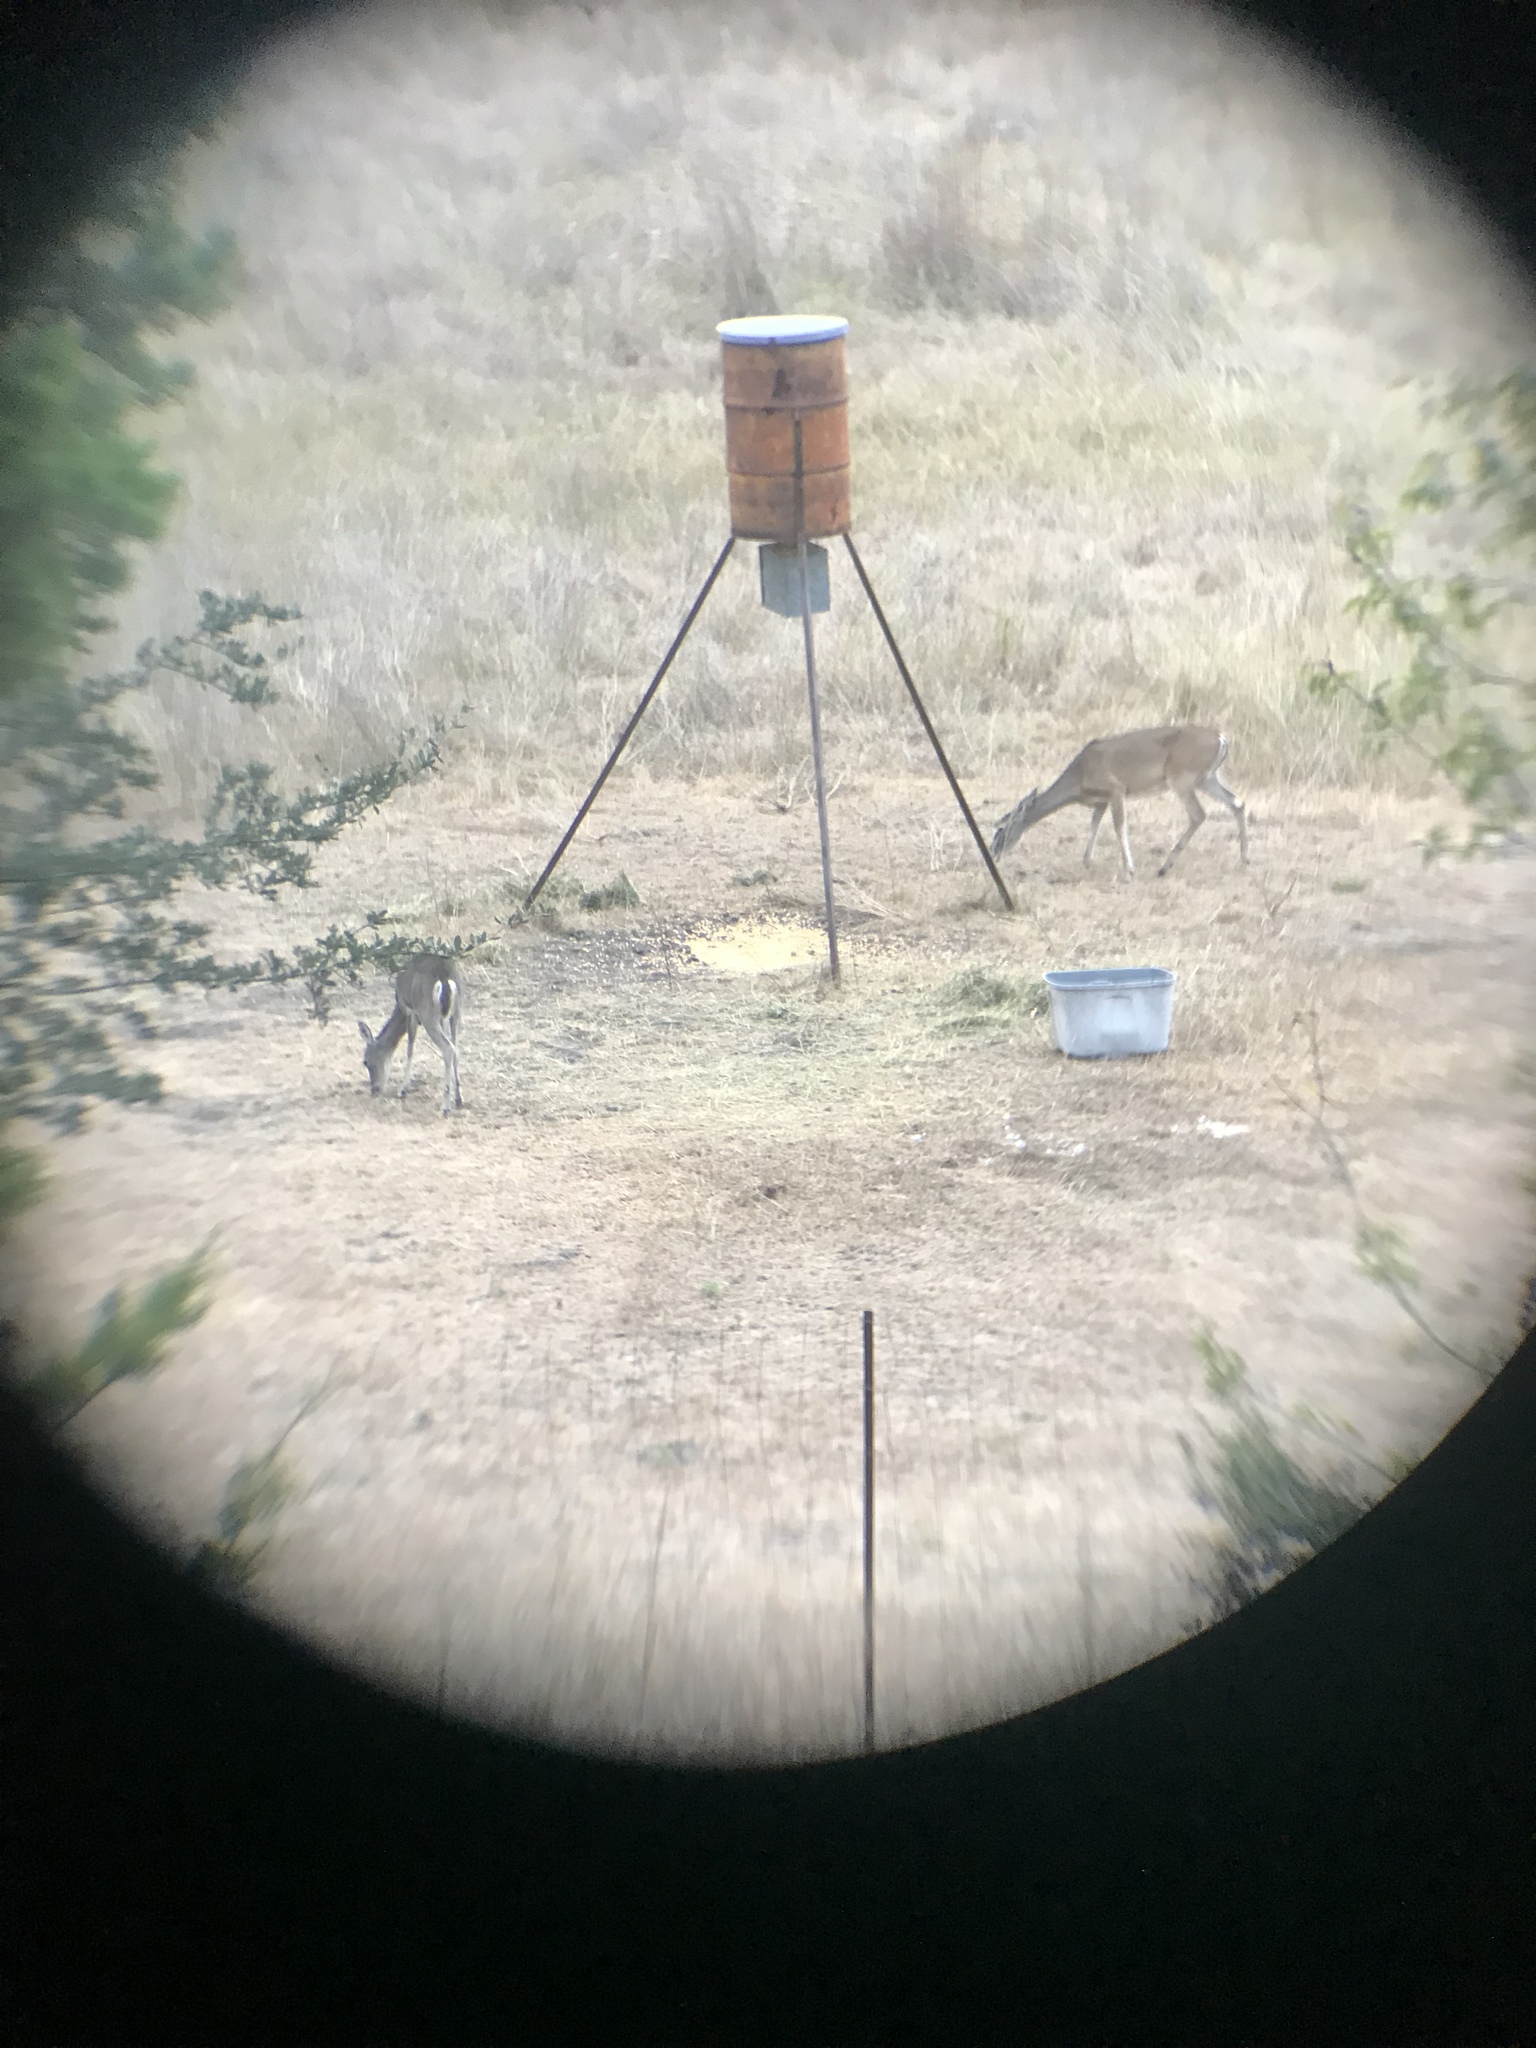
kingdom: Animalia
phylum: Chordata
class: Mammalia
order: Artiodactyla
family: Cervidae
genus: Odocoileus
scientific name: Odocoileus virginianus
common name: White-tailed deer
